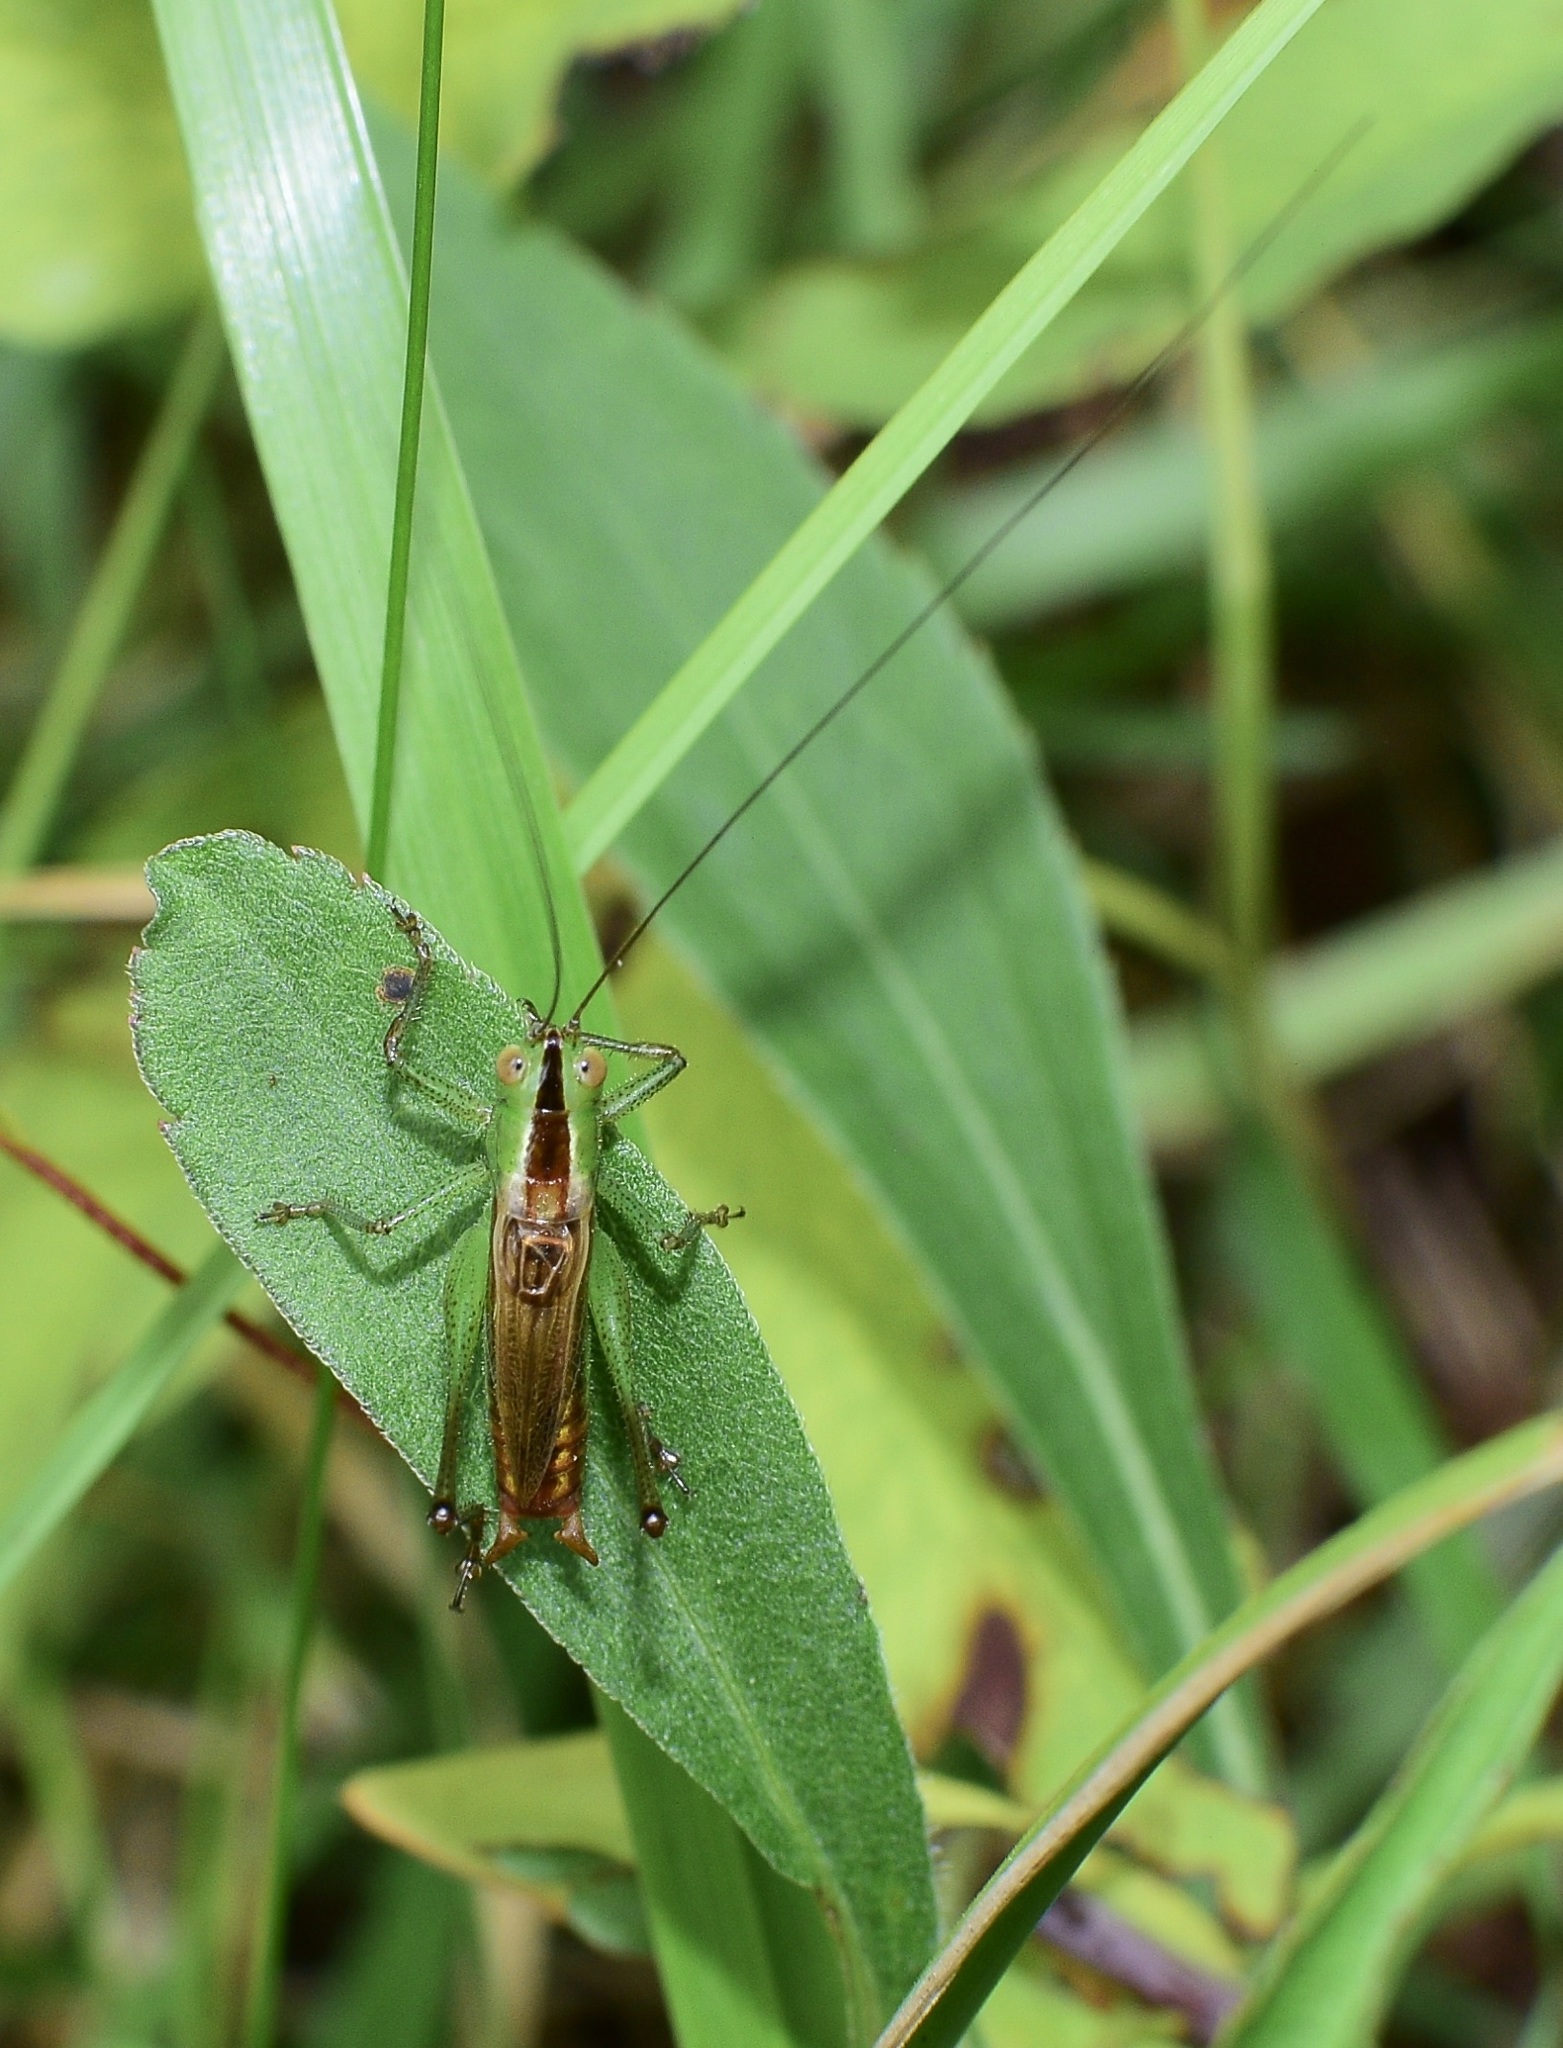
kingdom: Animalia
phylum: Arthropoda
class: Insecta
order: Orthoptera
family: Tettigoniidae
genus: Conocephalus
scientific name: Conocephalus brevipennis
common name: Short-winged meadow katydid
